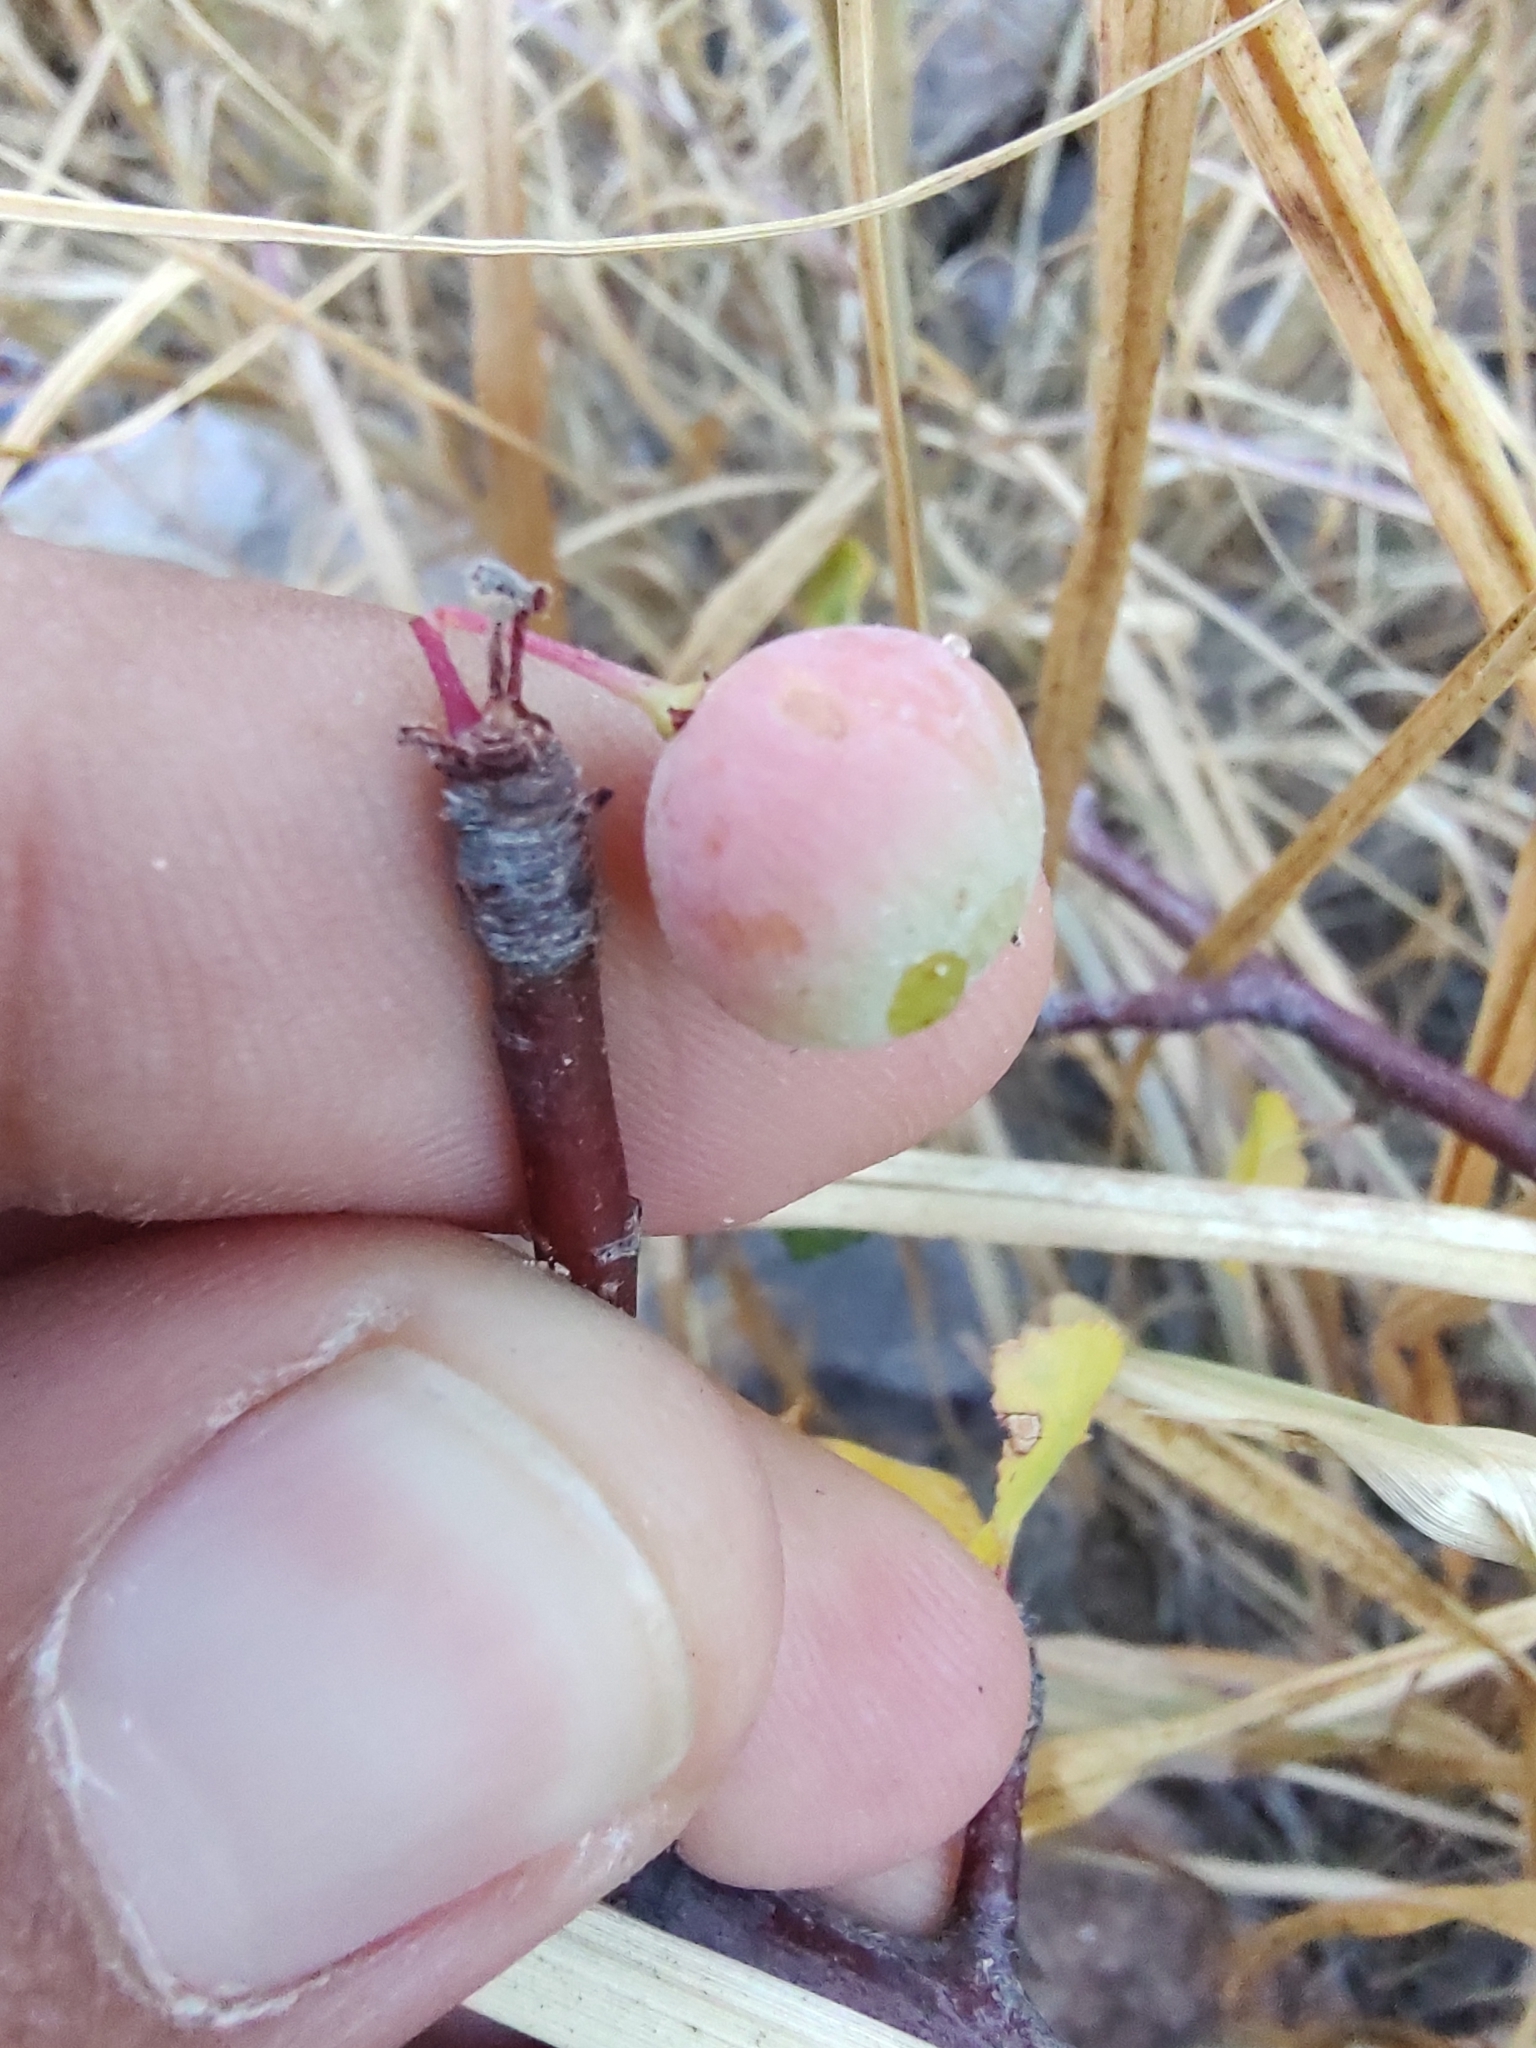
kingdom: Plantae
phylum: Tracheophyta
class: Magnoliopsida
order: Sapindales
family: Burseraceae
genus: Bursera
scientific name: Bursera epinnata
